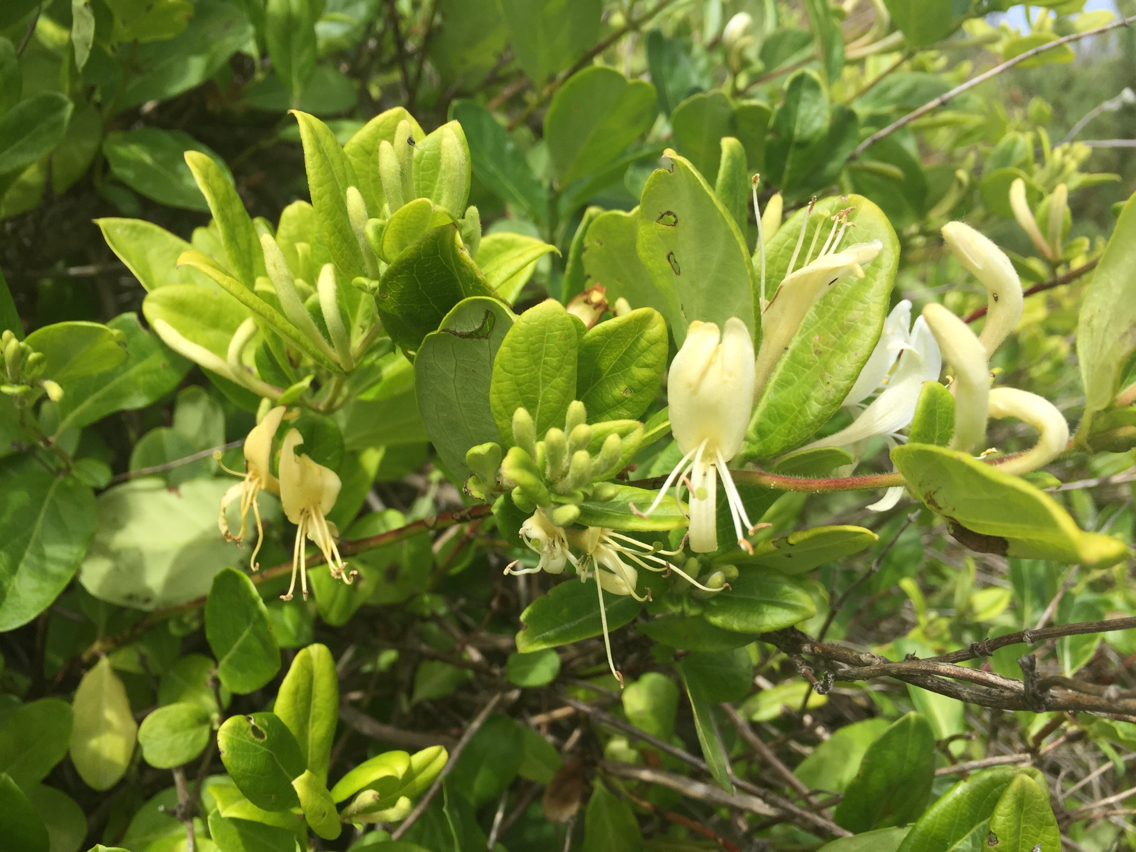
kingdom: Plantae
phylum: Tracheophyta
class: Magnoliopsida
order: Dipsacales
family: Caprifoliaceae
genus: Lonicera
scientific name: Lonicera japonica
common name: Japanese honeysuckle
